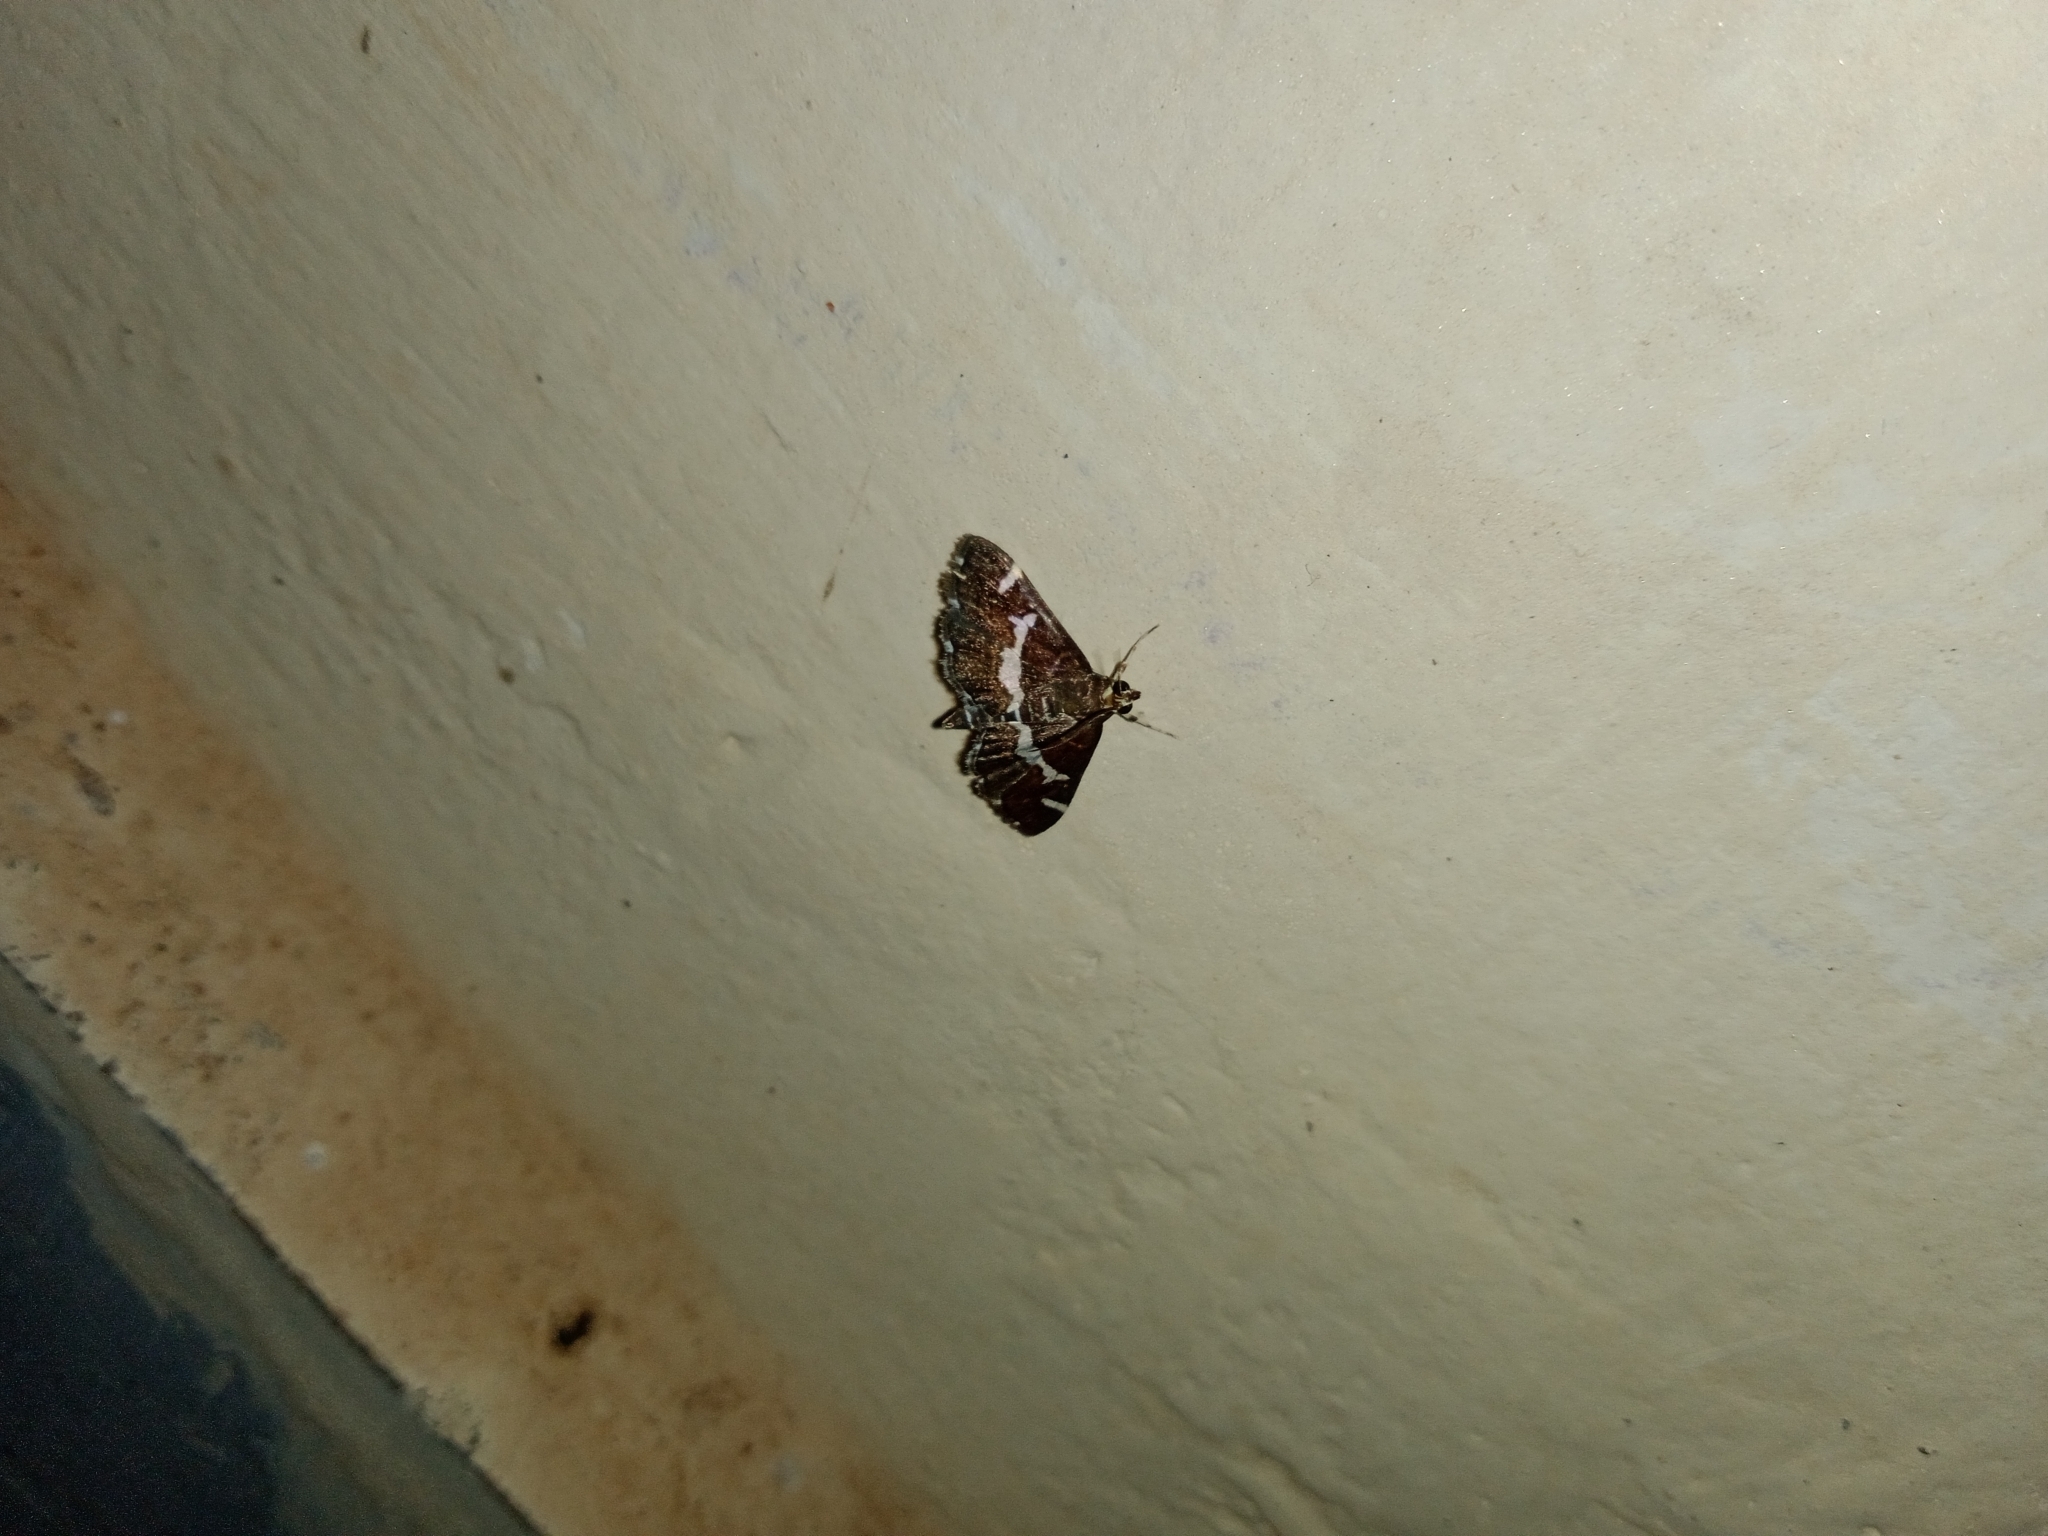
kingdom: Animalia
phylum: Arthropoda
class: Insecta
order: Lepidoptera
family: Crambidae
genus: Spoladea
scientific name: Spoladea recurvalis
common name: Beet webworm moth
